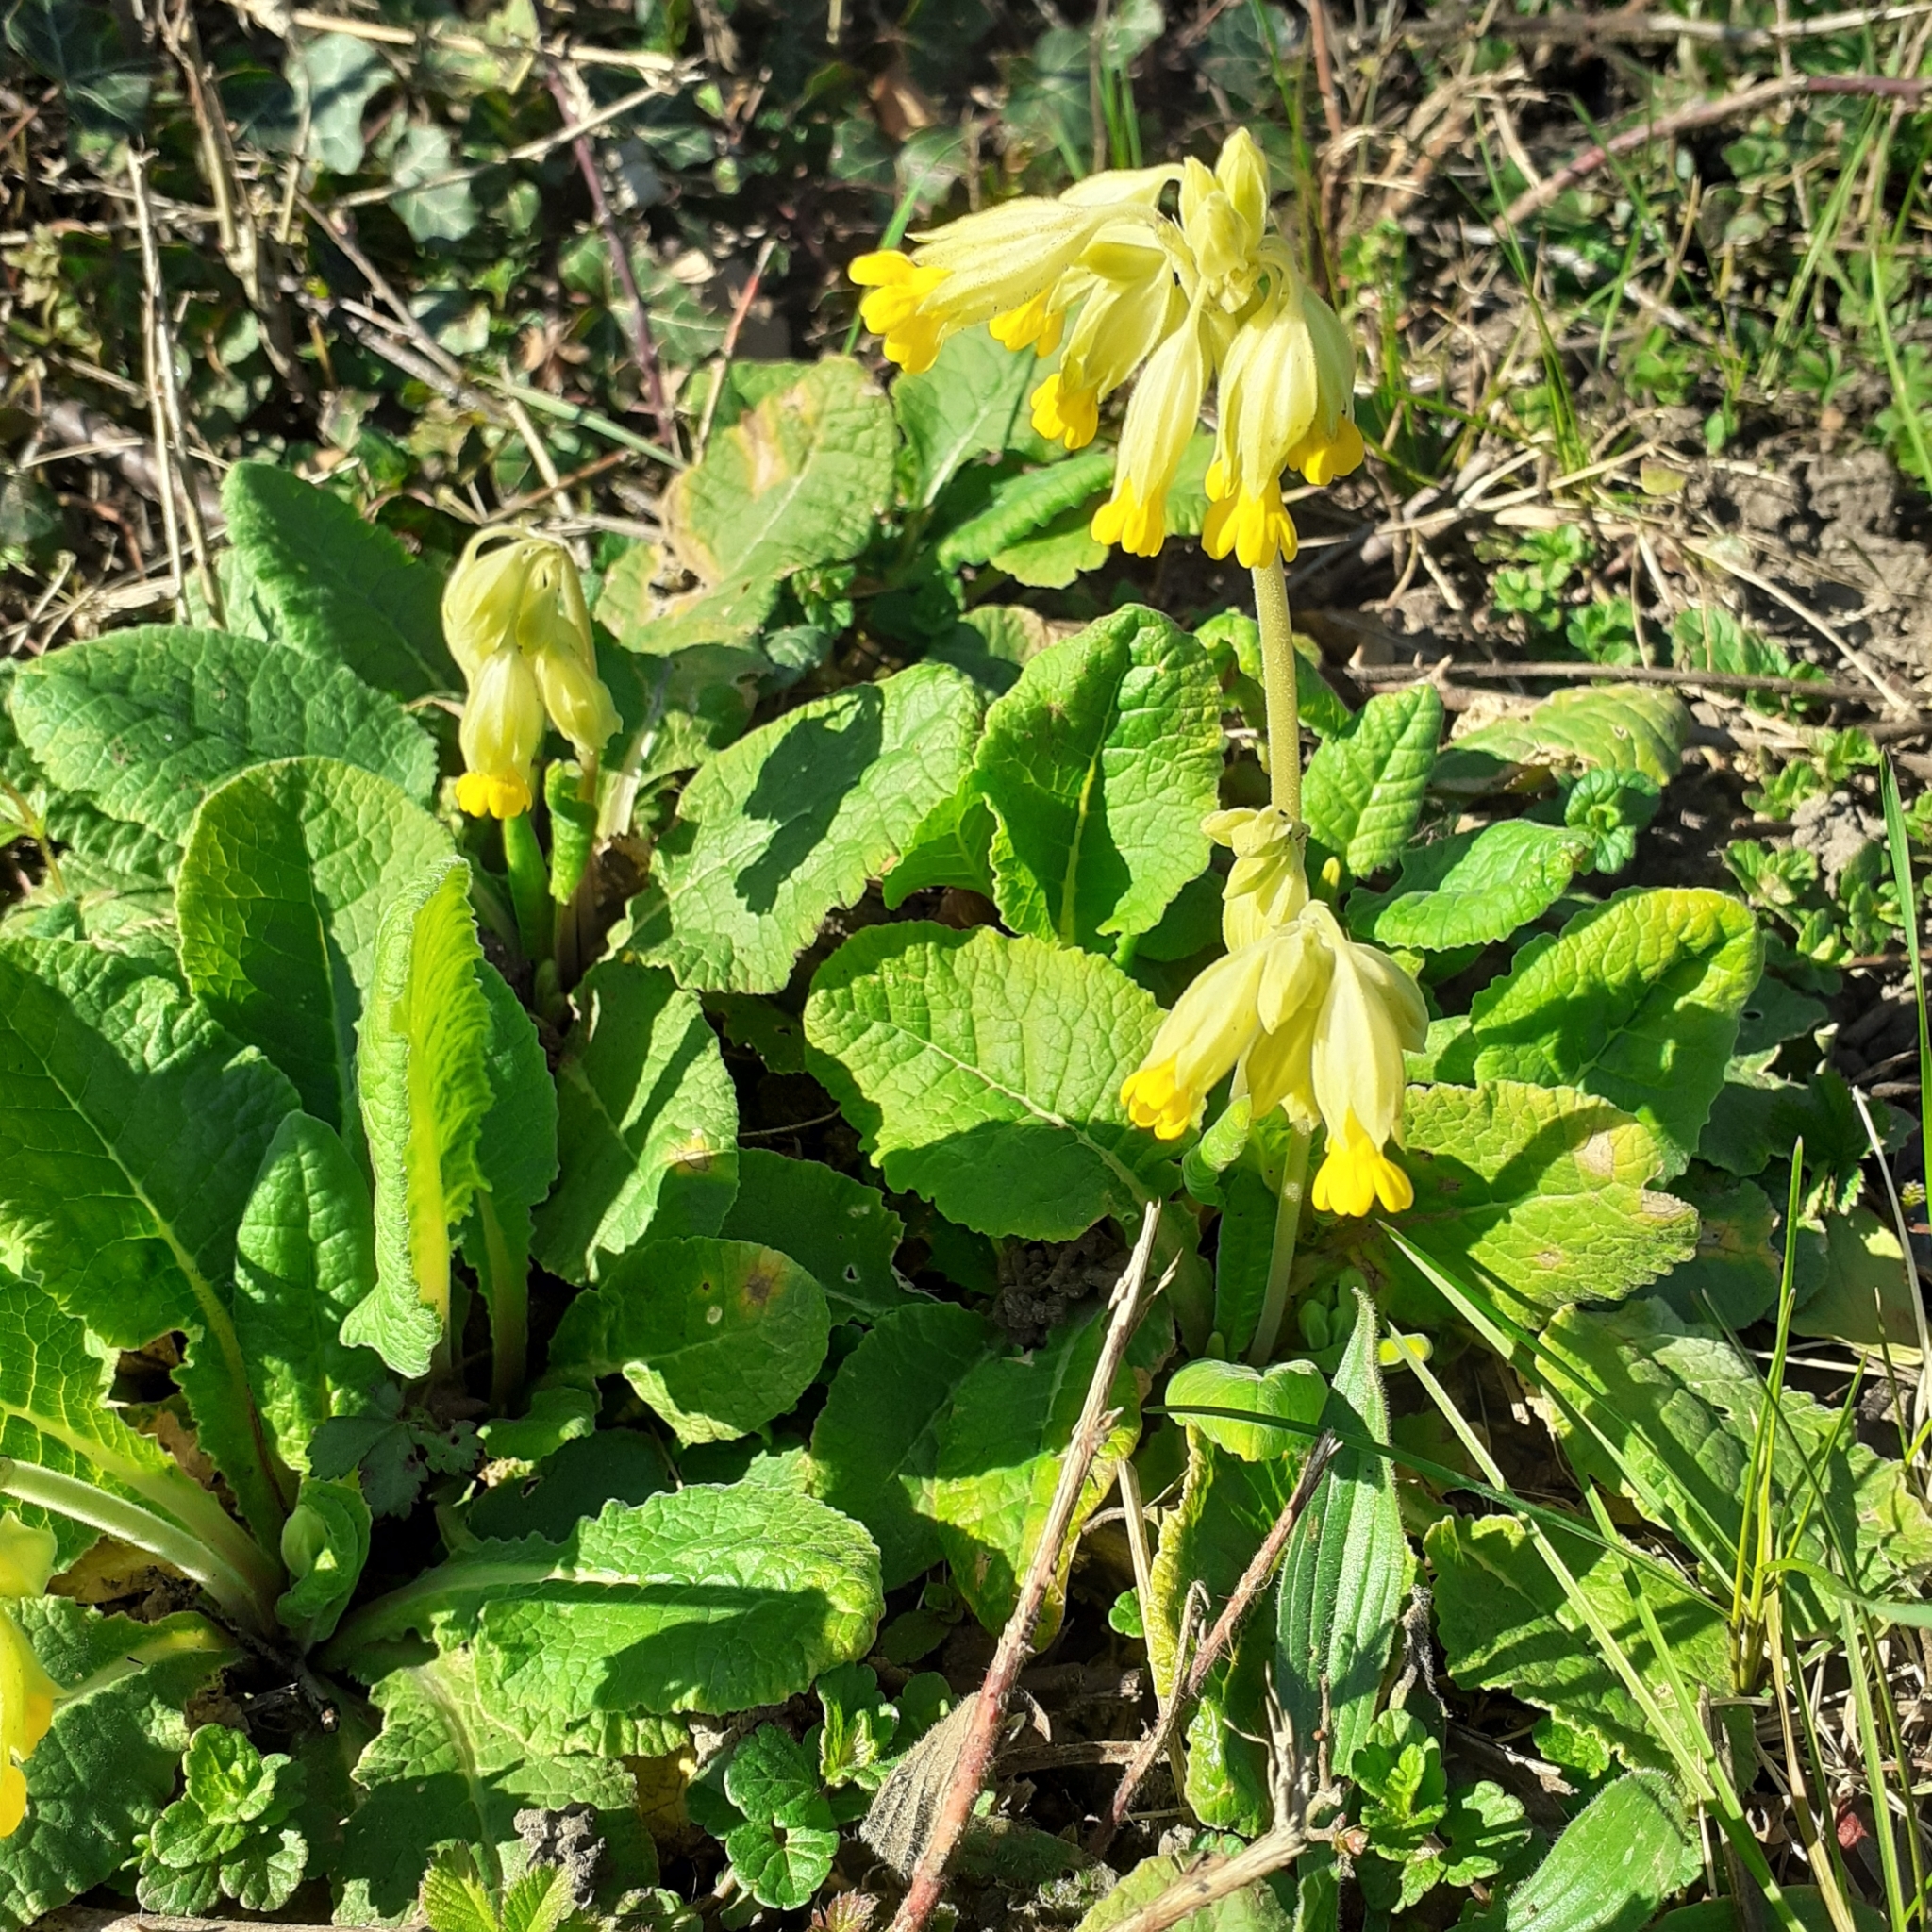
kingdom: Plantae
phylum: Tracheophyta
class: Magnoliopsida
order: Ericales
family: Primulaceae
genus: Primula
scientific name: Primula veris
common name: Cowslip
